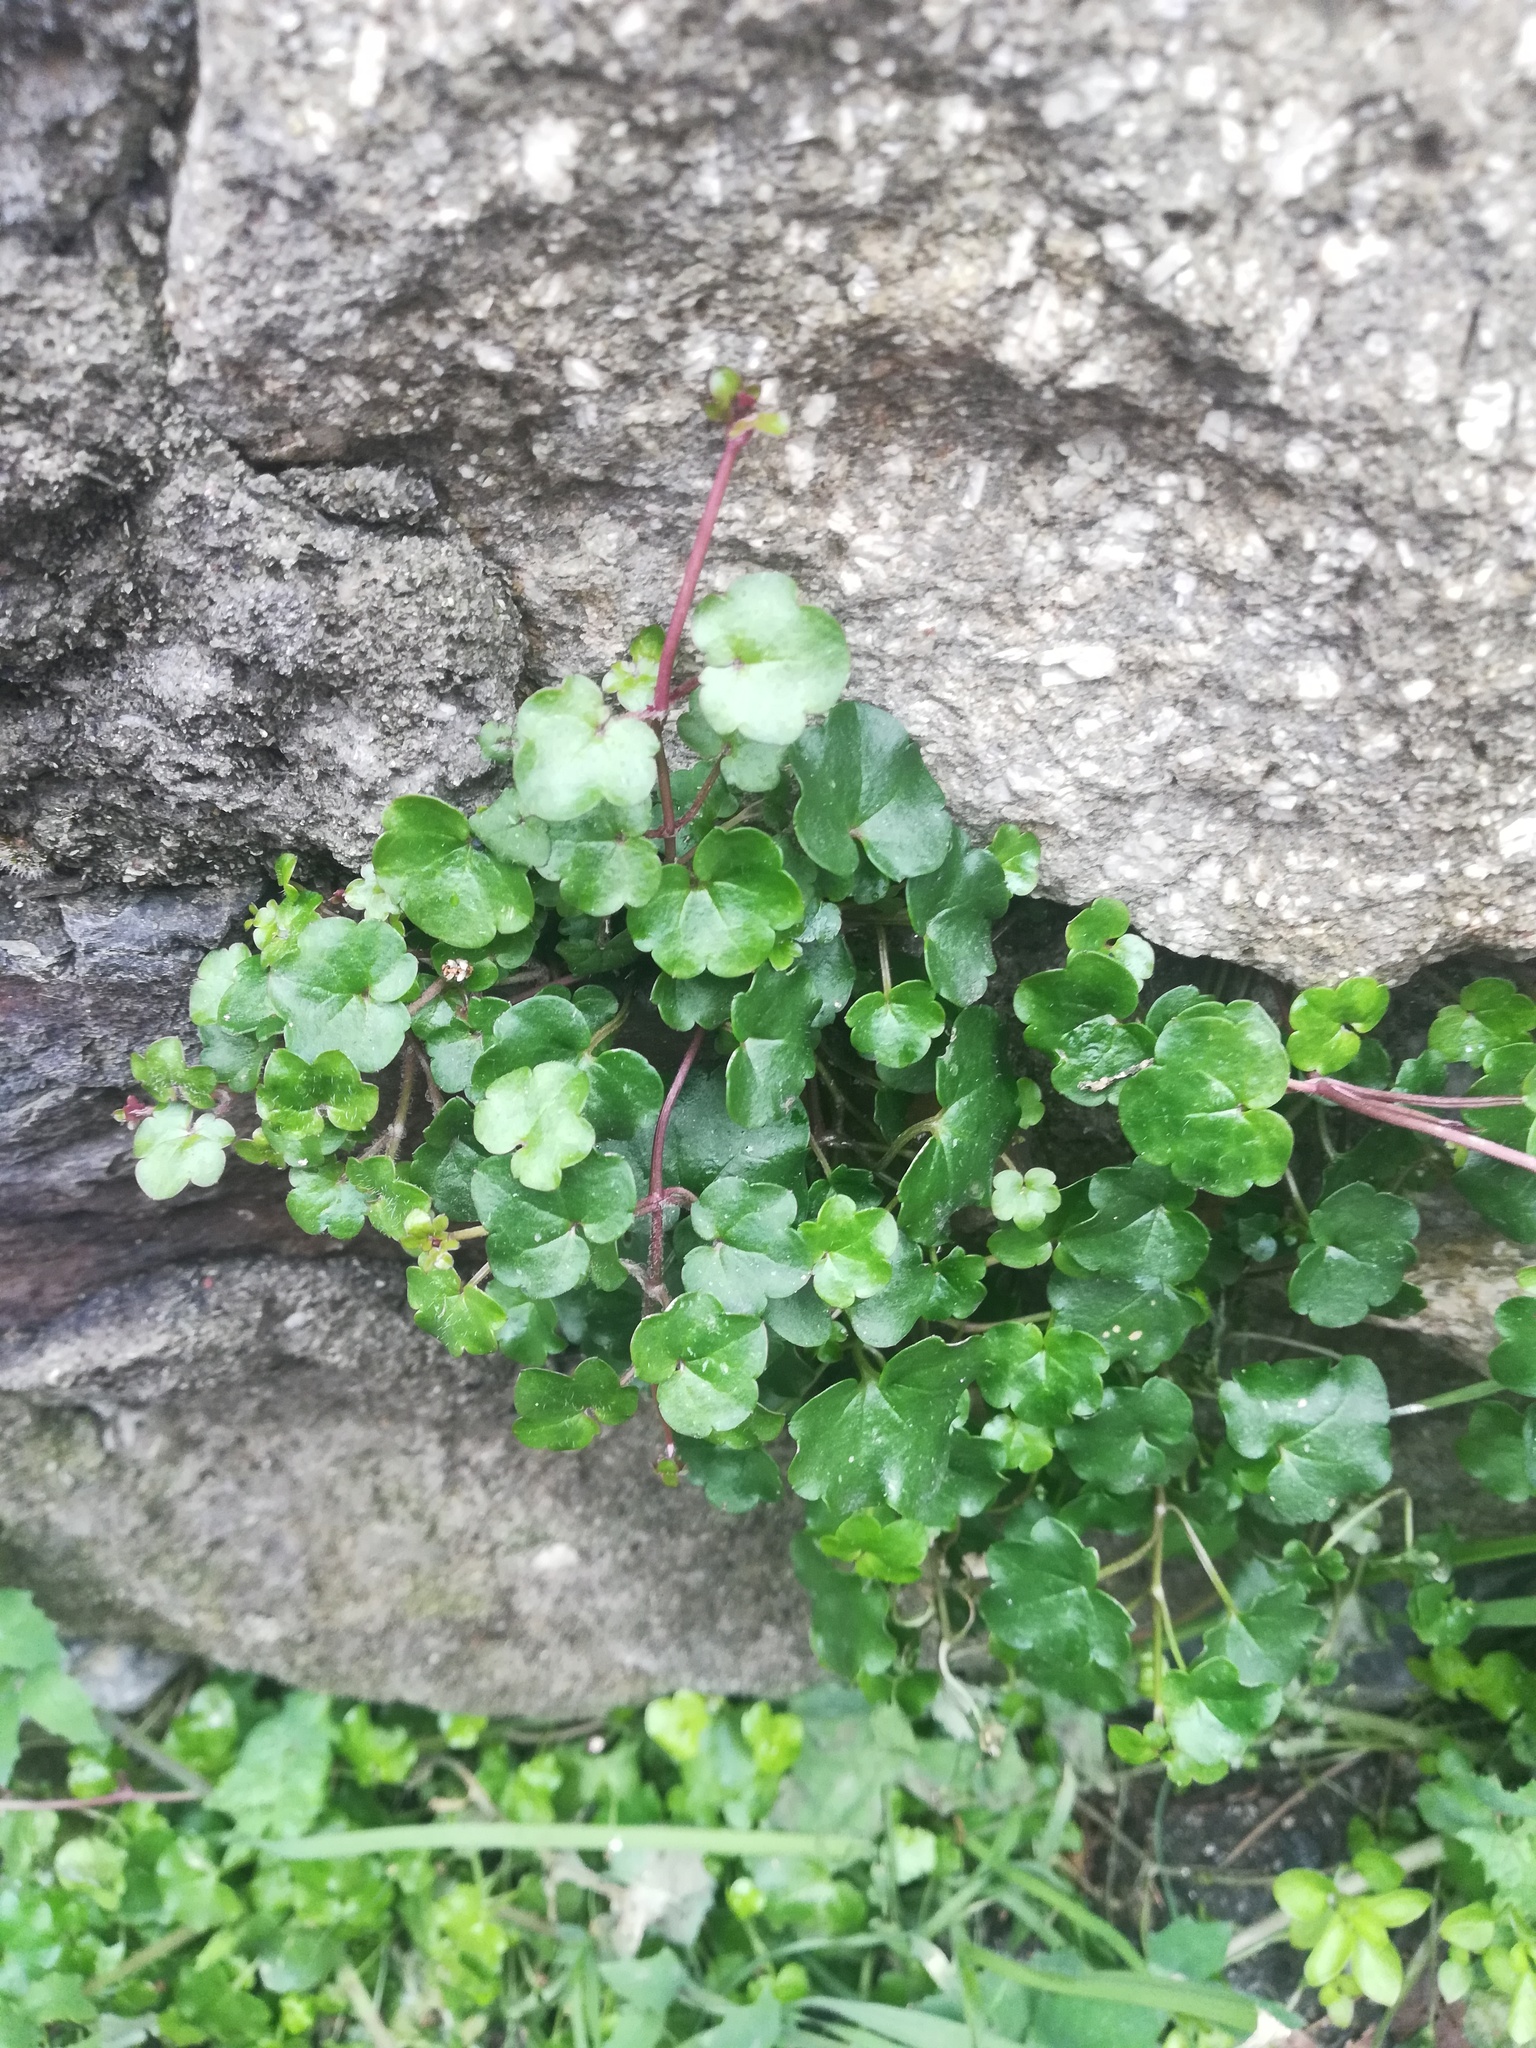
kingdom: Plantae
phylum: Tracheophyta
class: Magnoliopsida
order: Lamiales
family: Plantaginaceae
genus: Cymbalaria
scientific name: Cymbalaria muralis
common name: Ivy-leaved toadflax
